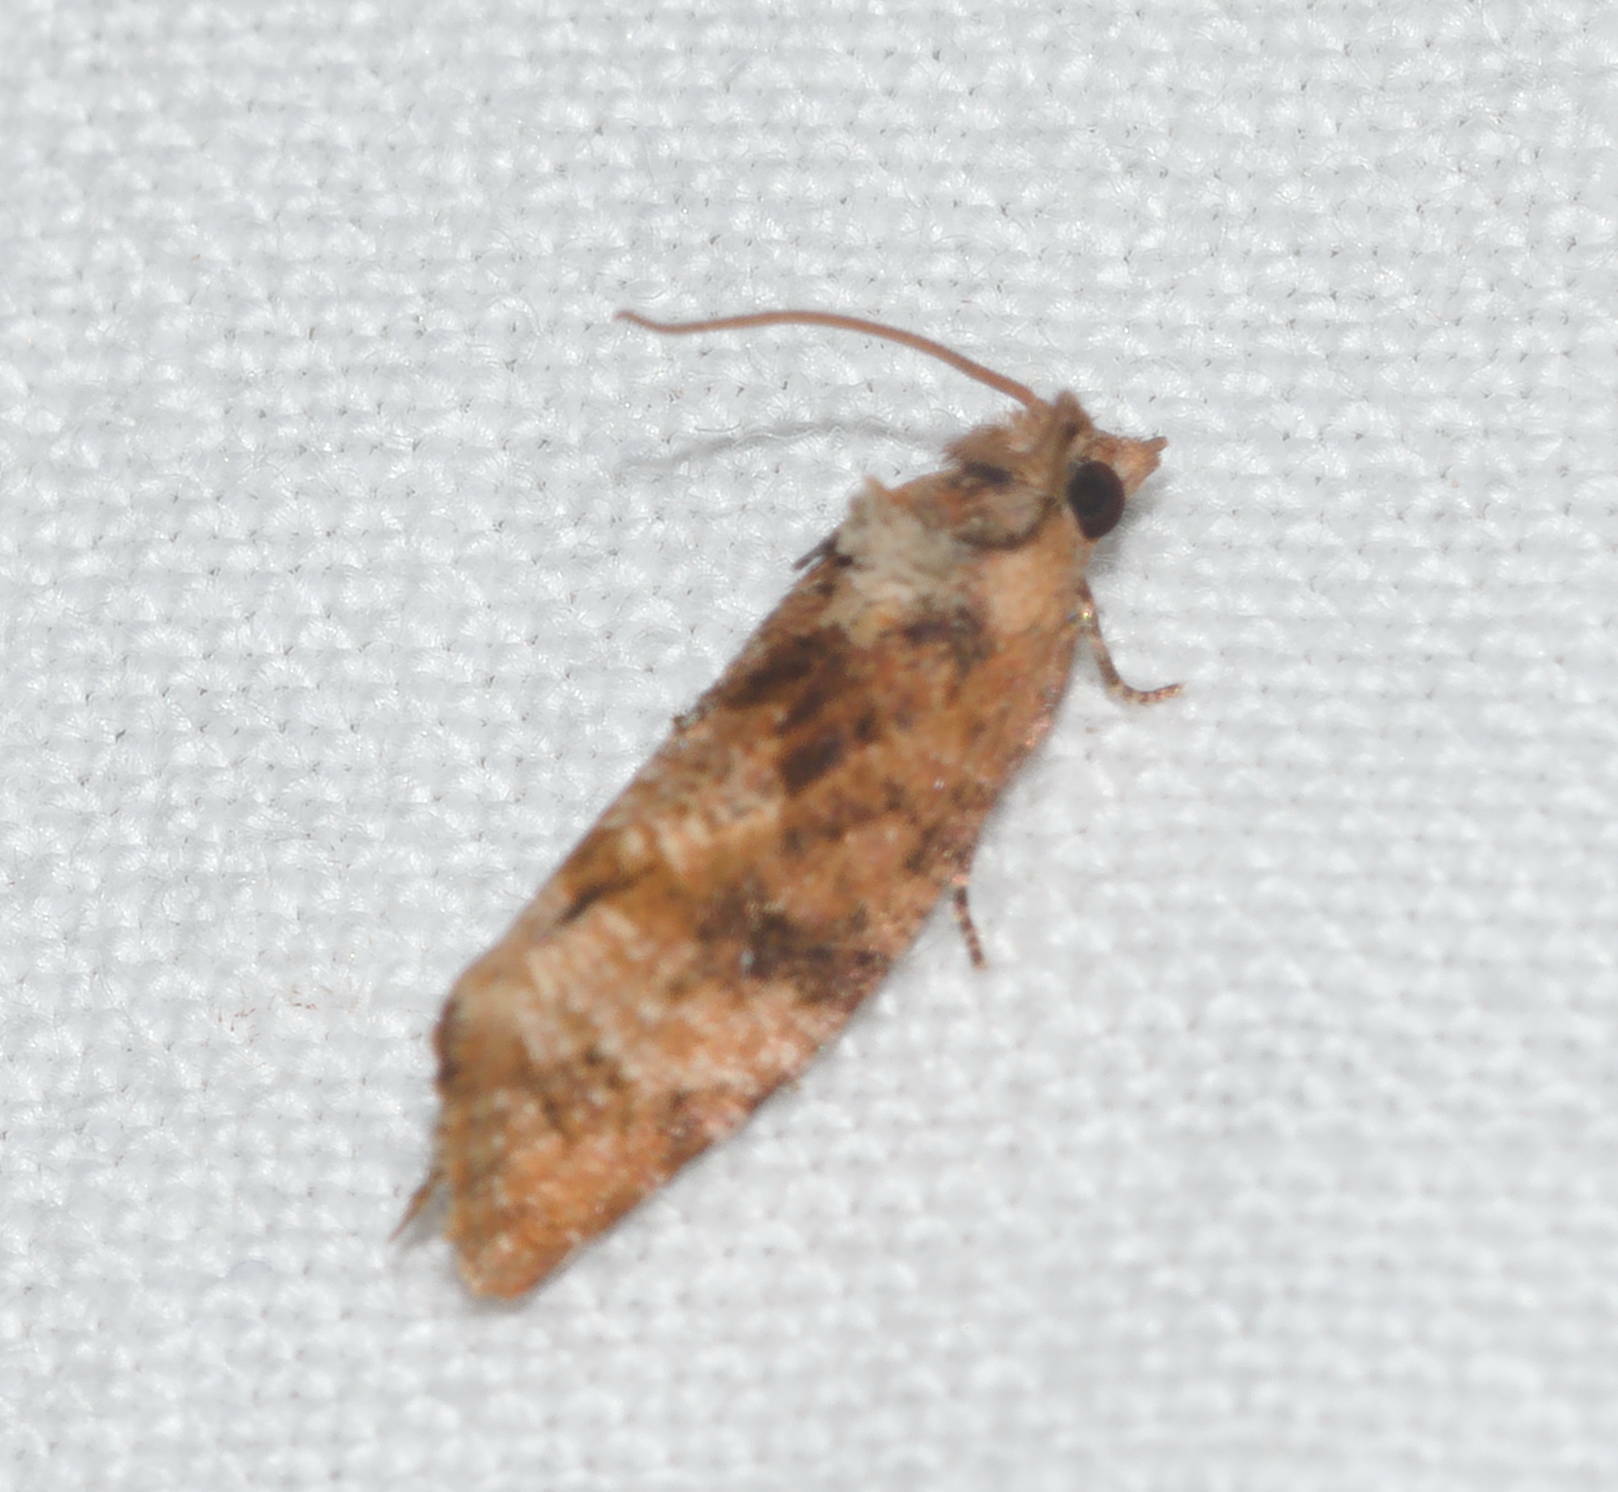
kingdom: Animalia
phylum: Arthropoda
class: Insecta
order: Lepidoptera
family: Tortricidae
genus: Cryptophlebia
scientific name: Cryptophlebia illepida
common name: Moth
